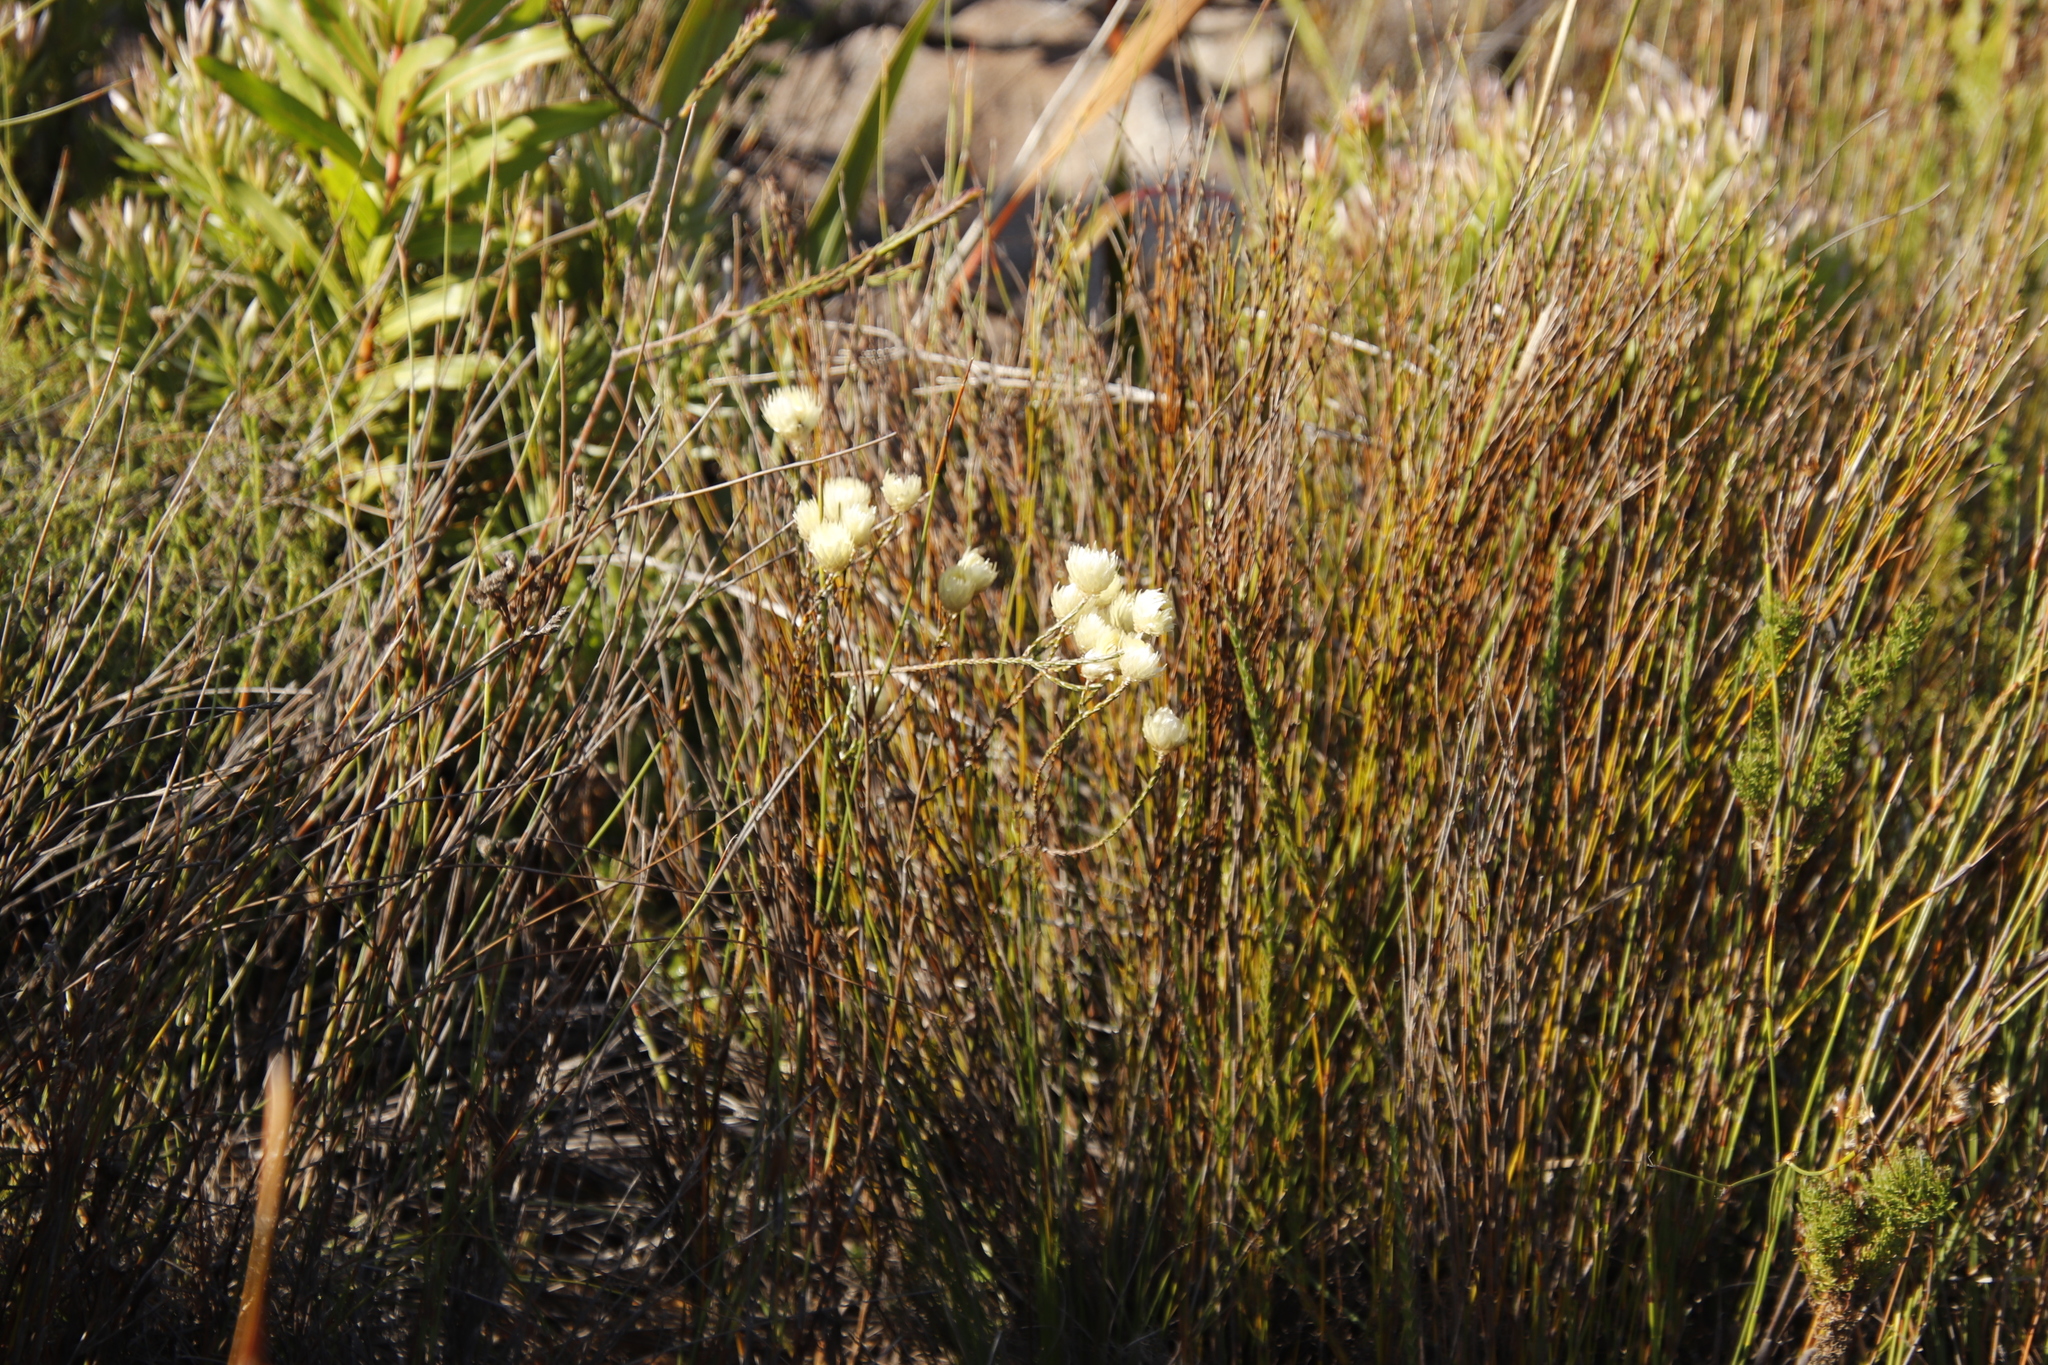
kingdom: Plantae
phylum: Tracheophyta
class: Magnoliopsida
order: Asterales
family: Asteraceae
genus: Edmondia
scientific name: Edmondia sesamoides
